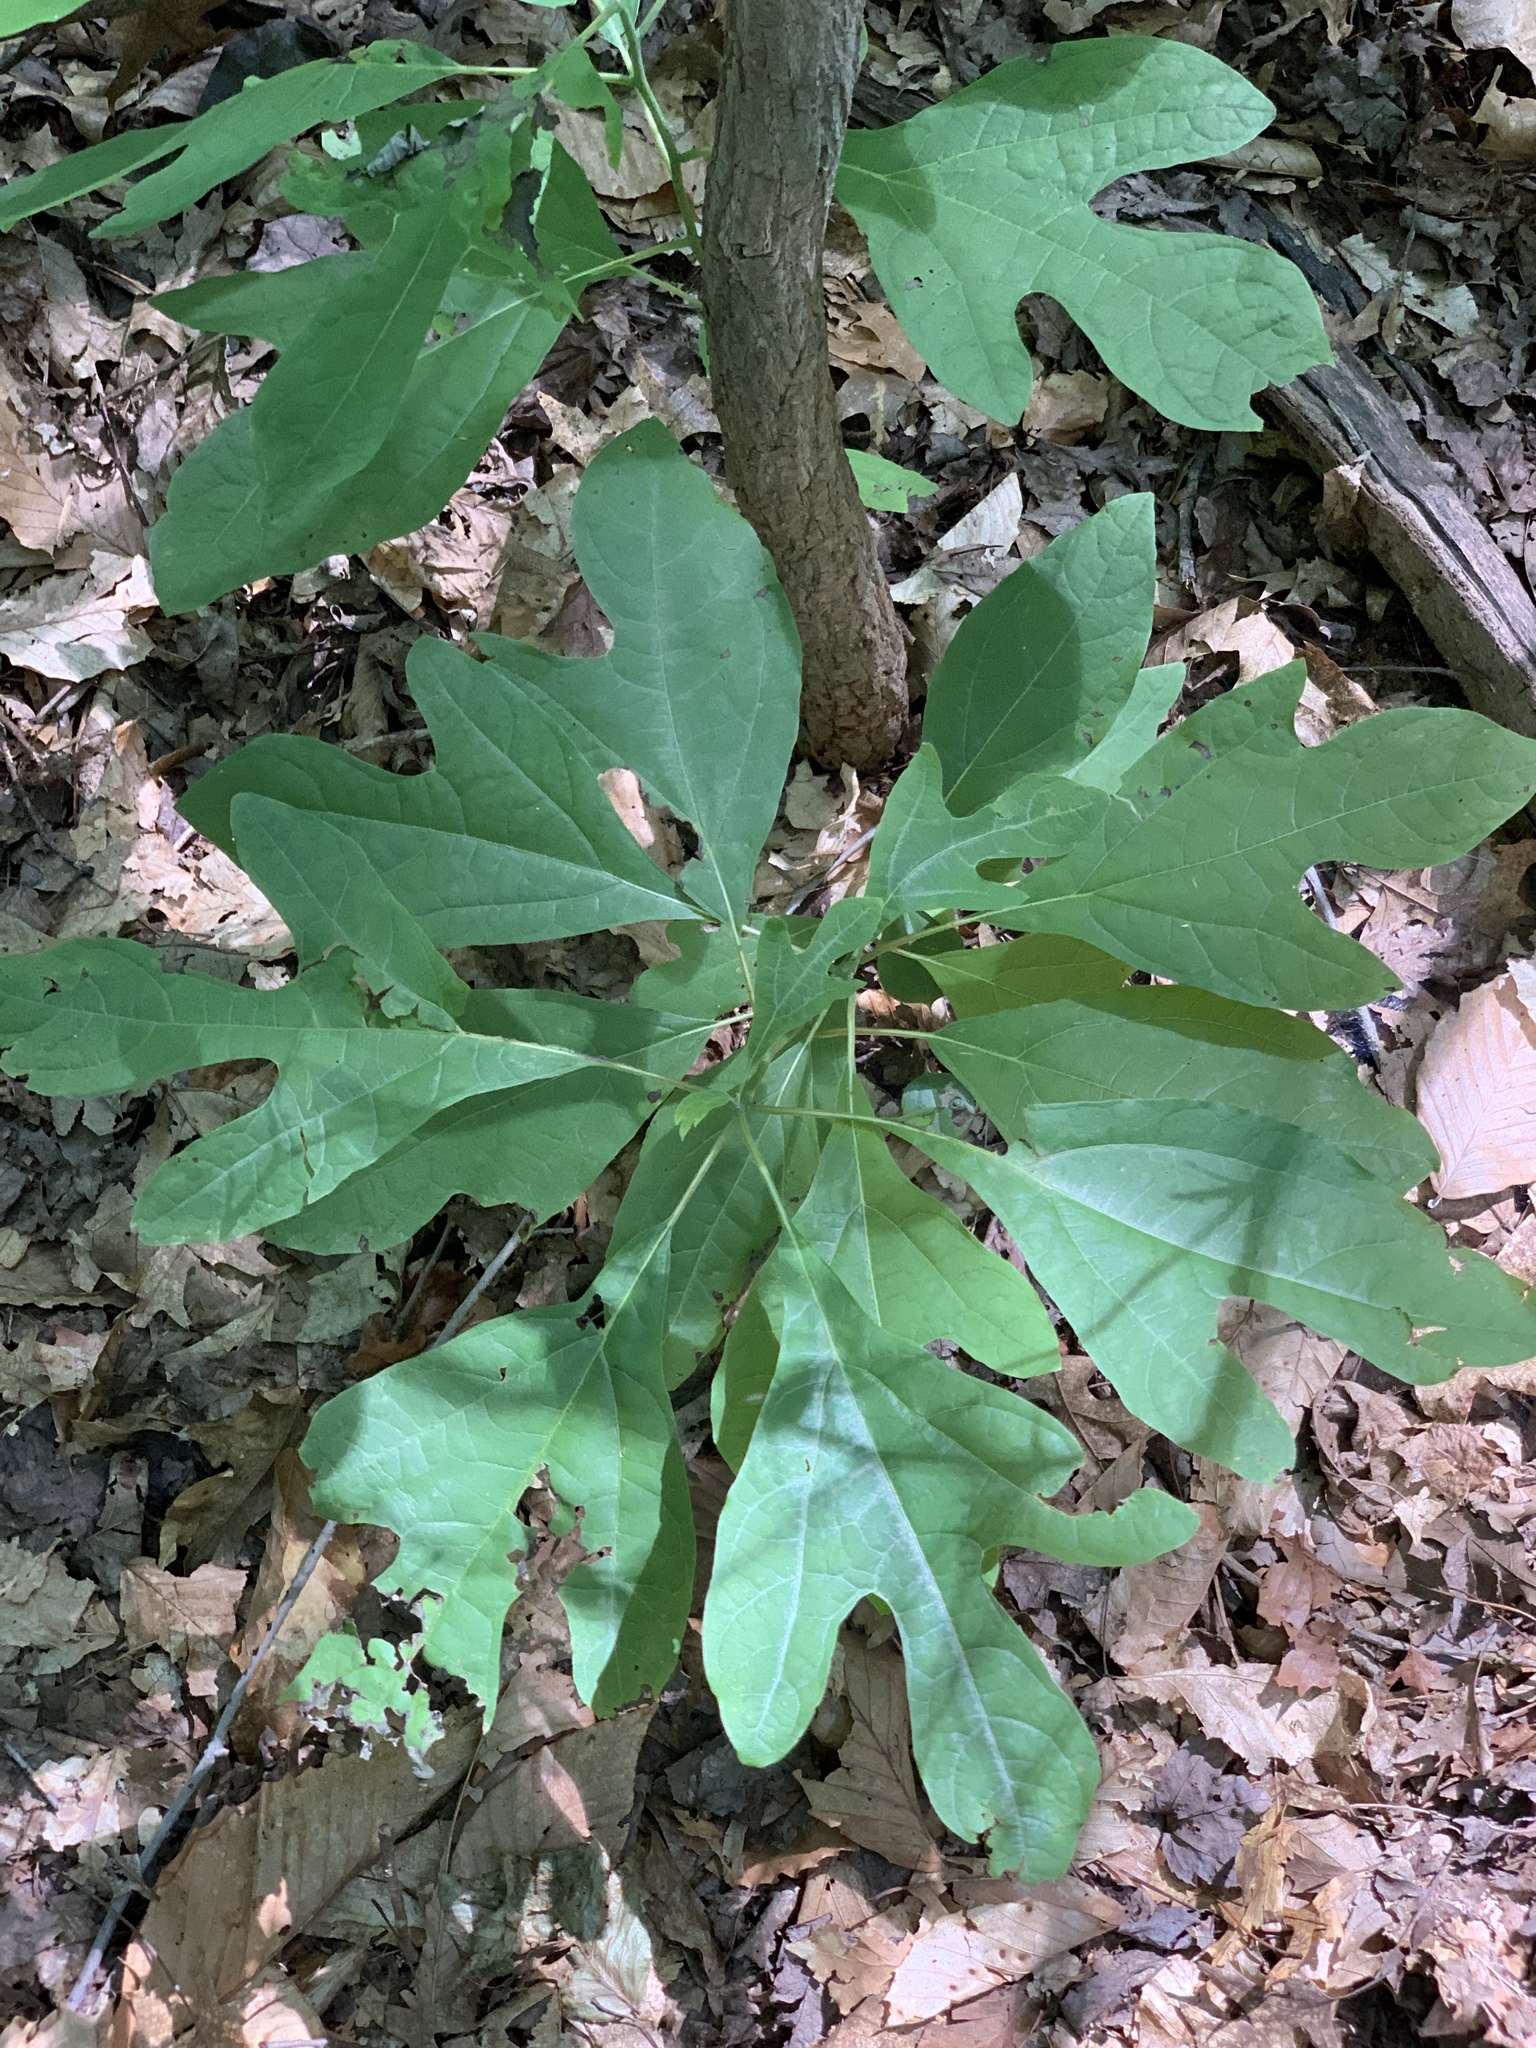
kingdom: Plantae
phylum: Tracheophyta
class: Magnoliopsida
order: Laurales
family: Lauraceae
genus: Sassafras
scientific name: Sassafras albidum
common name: Sassafras
